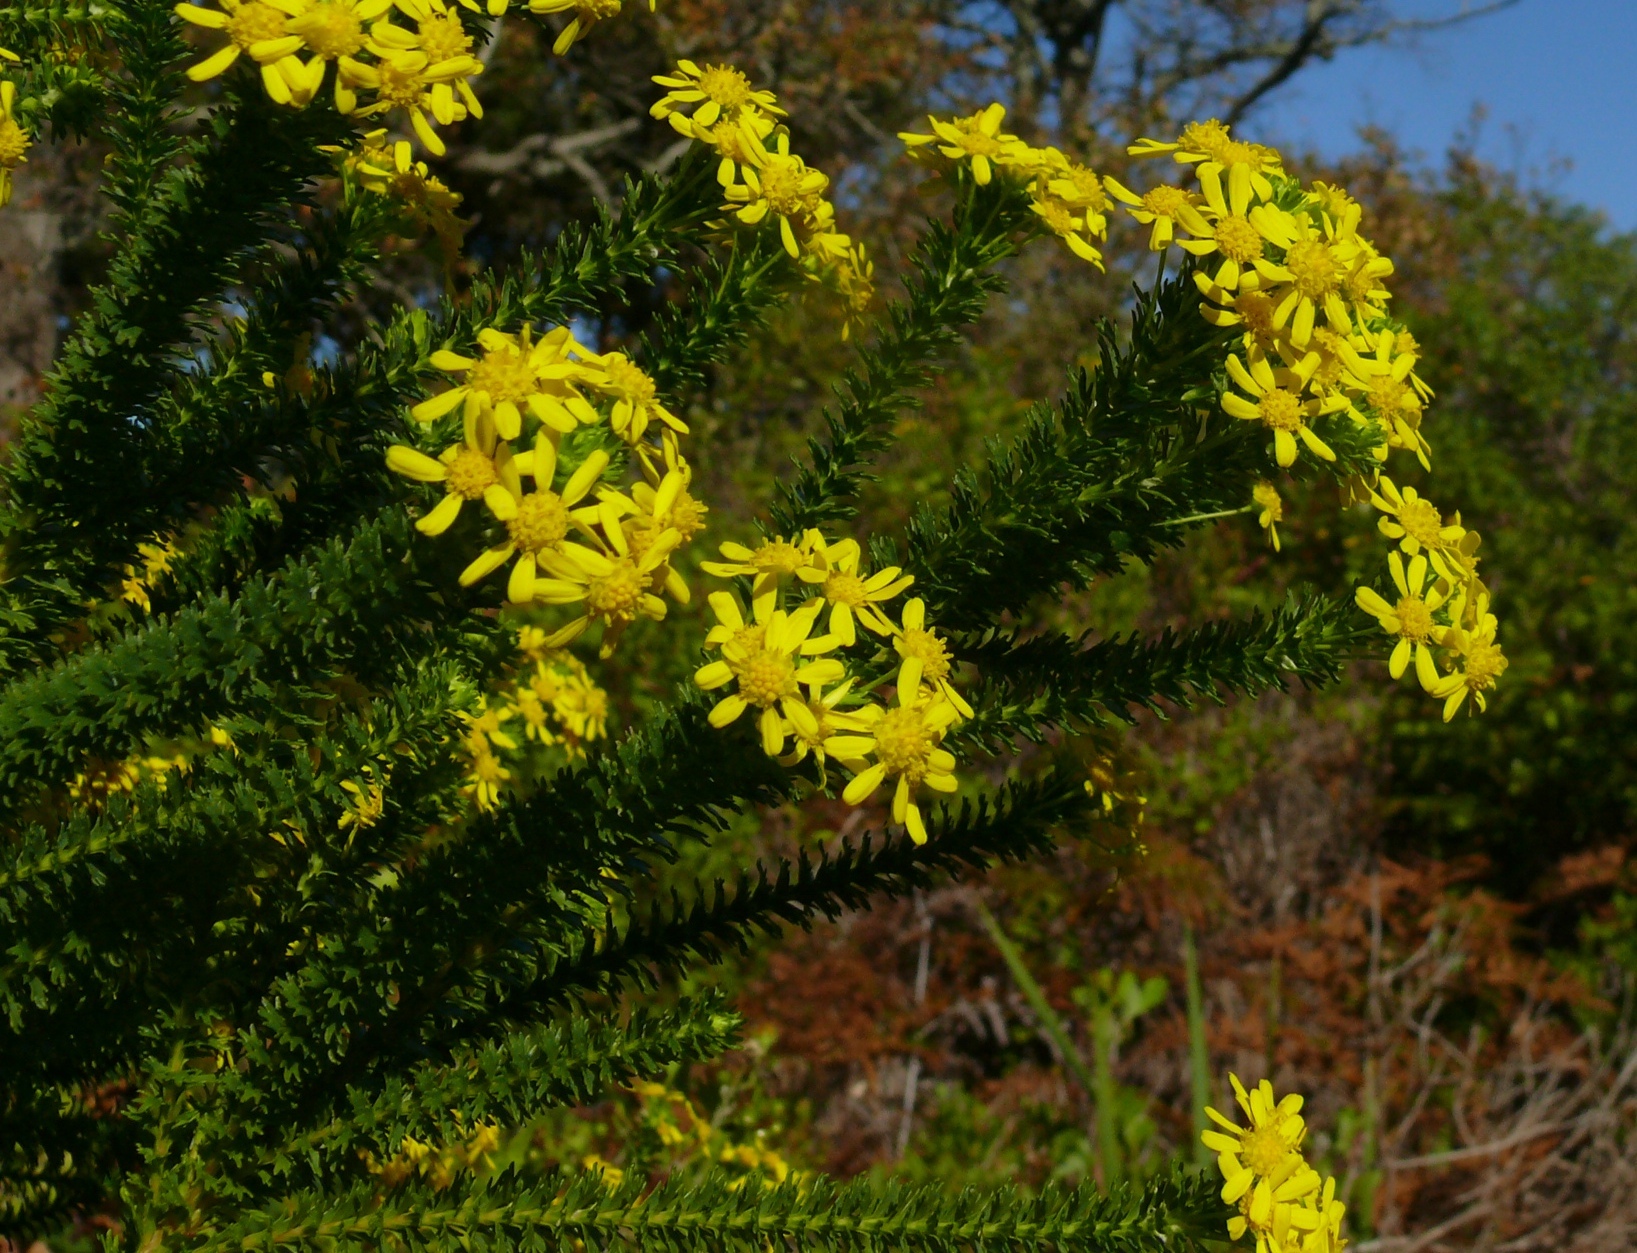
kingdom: Plantae
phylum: Tracheophyta
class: Magnoliopsida
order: Asterales
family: Asteraceae
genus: Euryops
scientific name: Euryops virgineus
